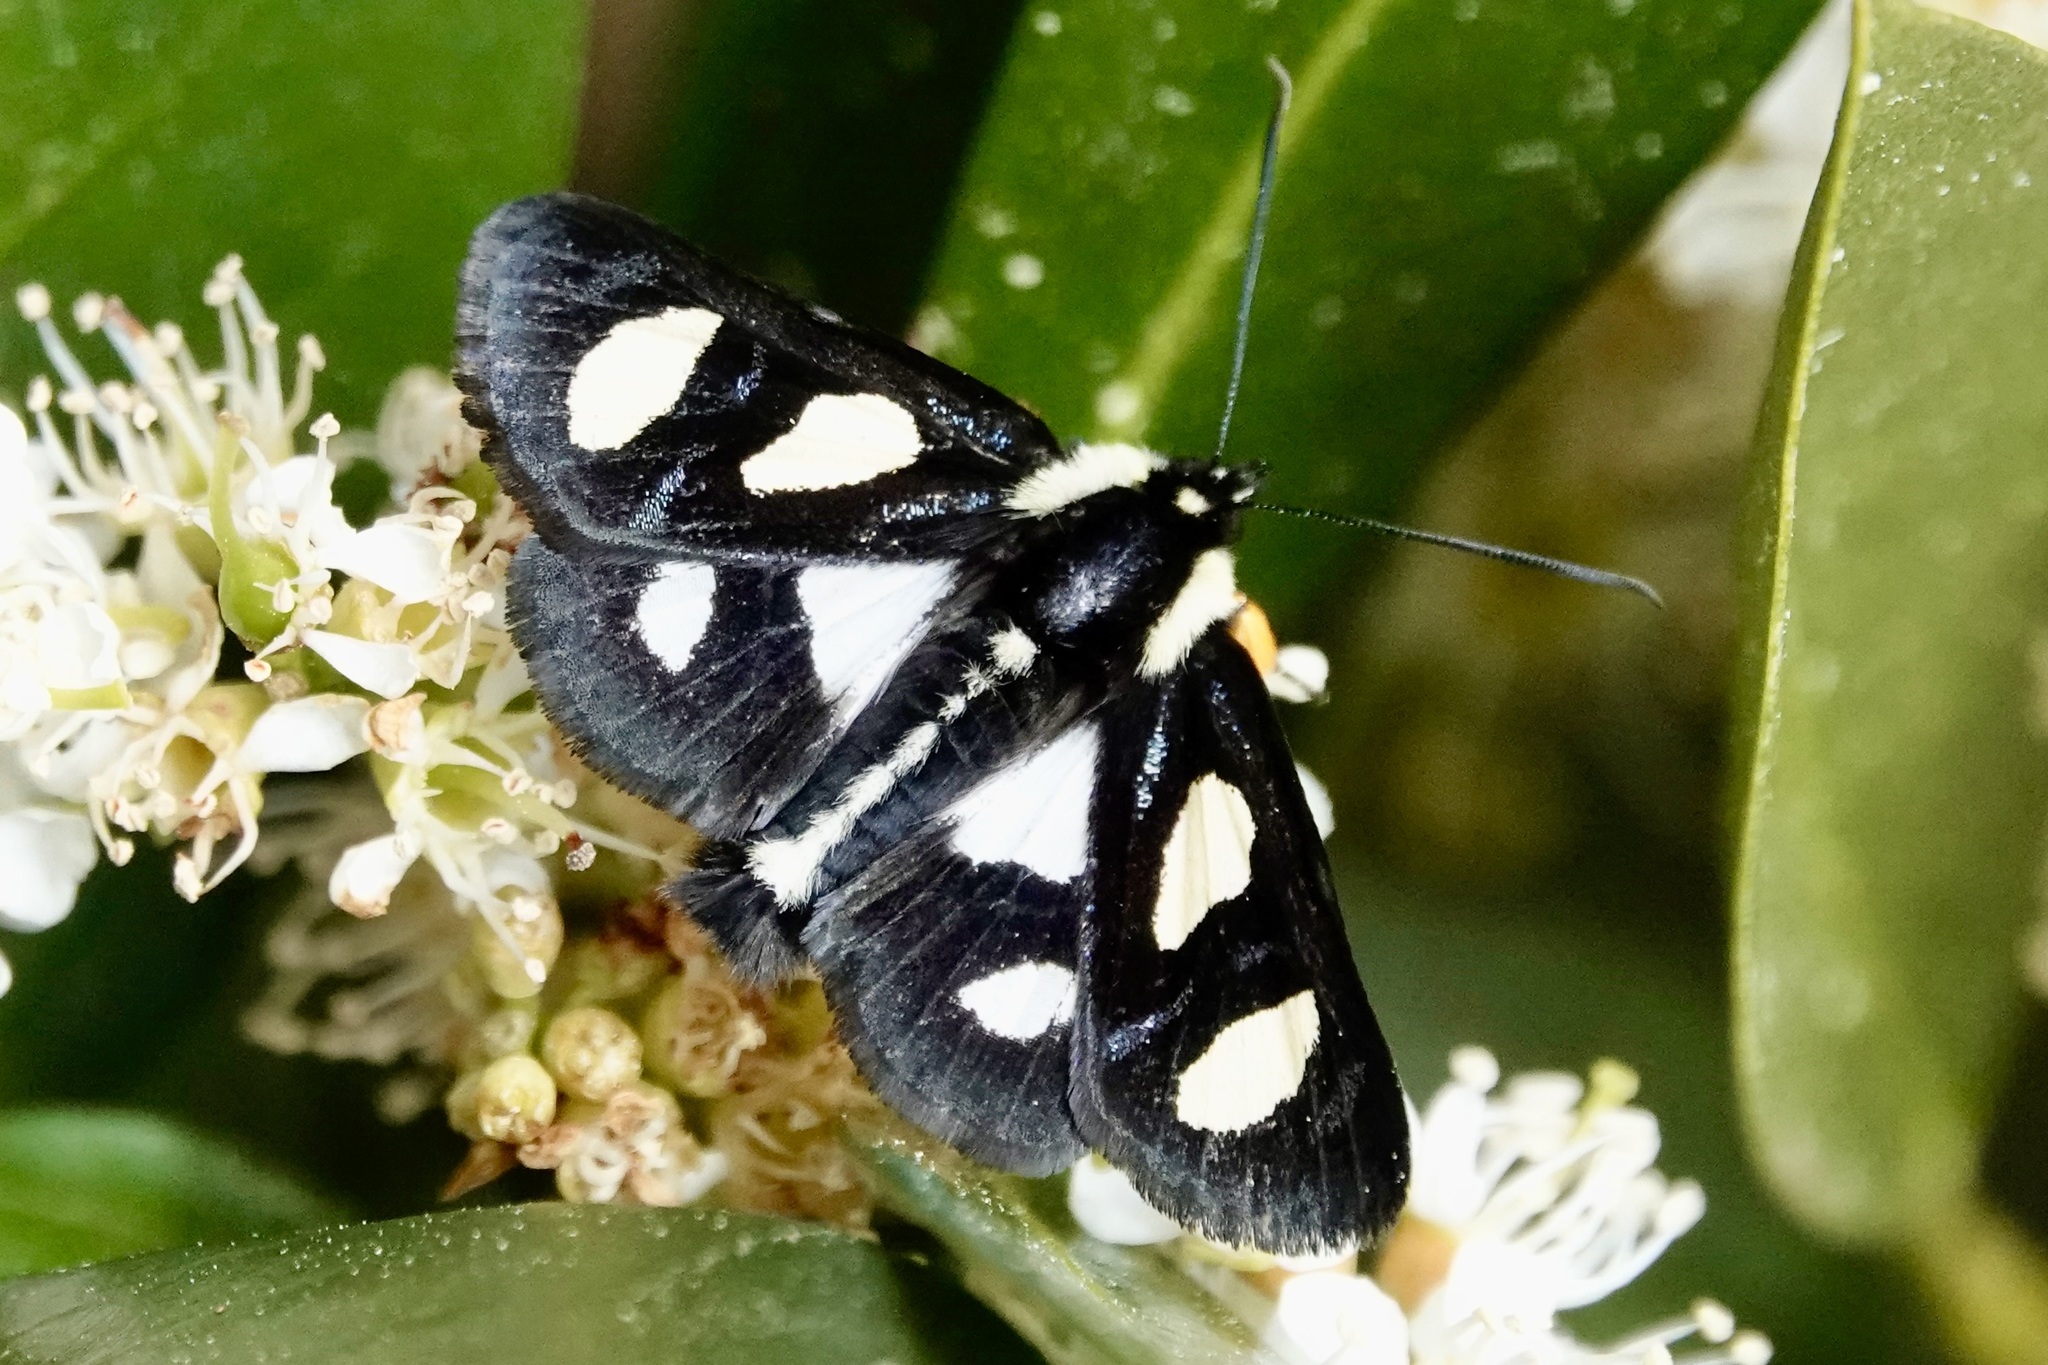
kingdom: Animalia
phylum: Arthropoda
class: Insecta
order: Lepidoptera
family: Noctuidae
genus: Alypia
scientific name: Alypia octomaculata
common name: Eight-spotted forester
